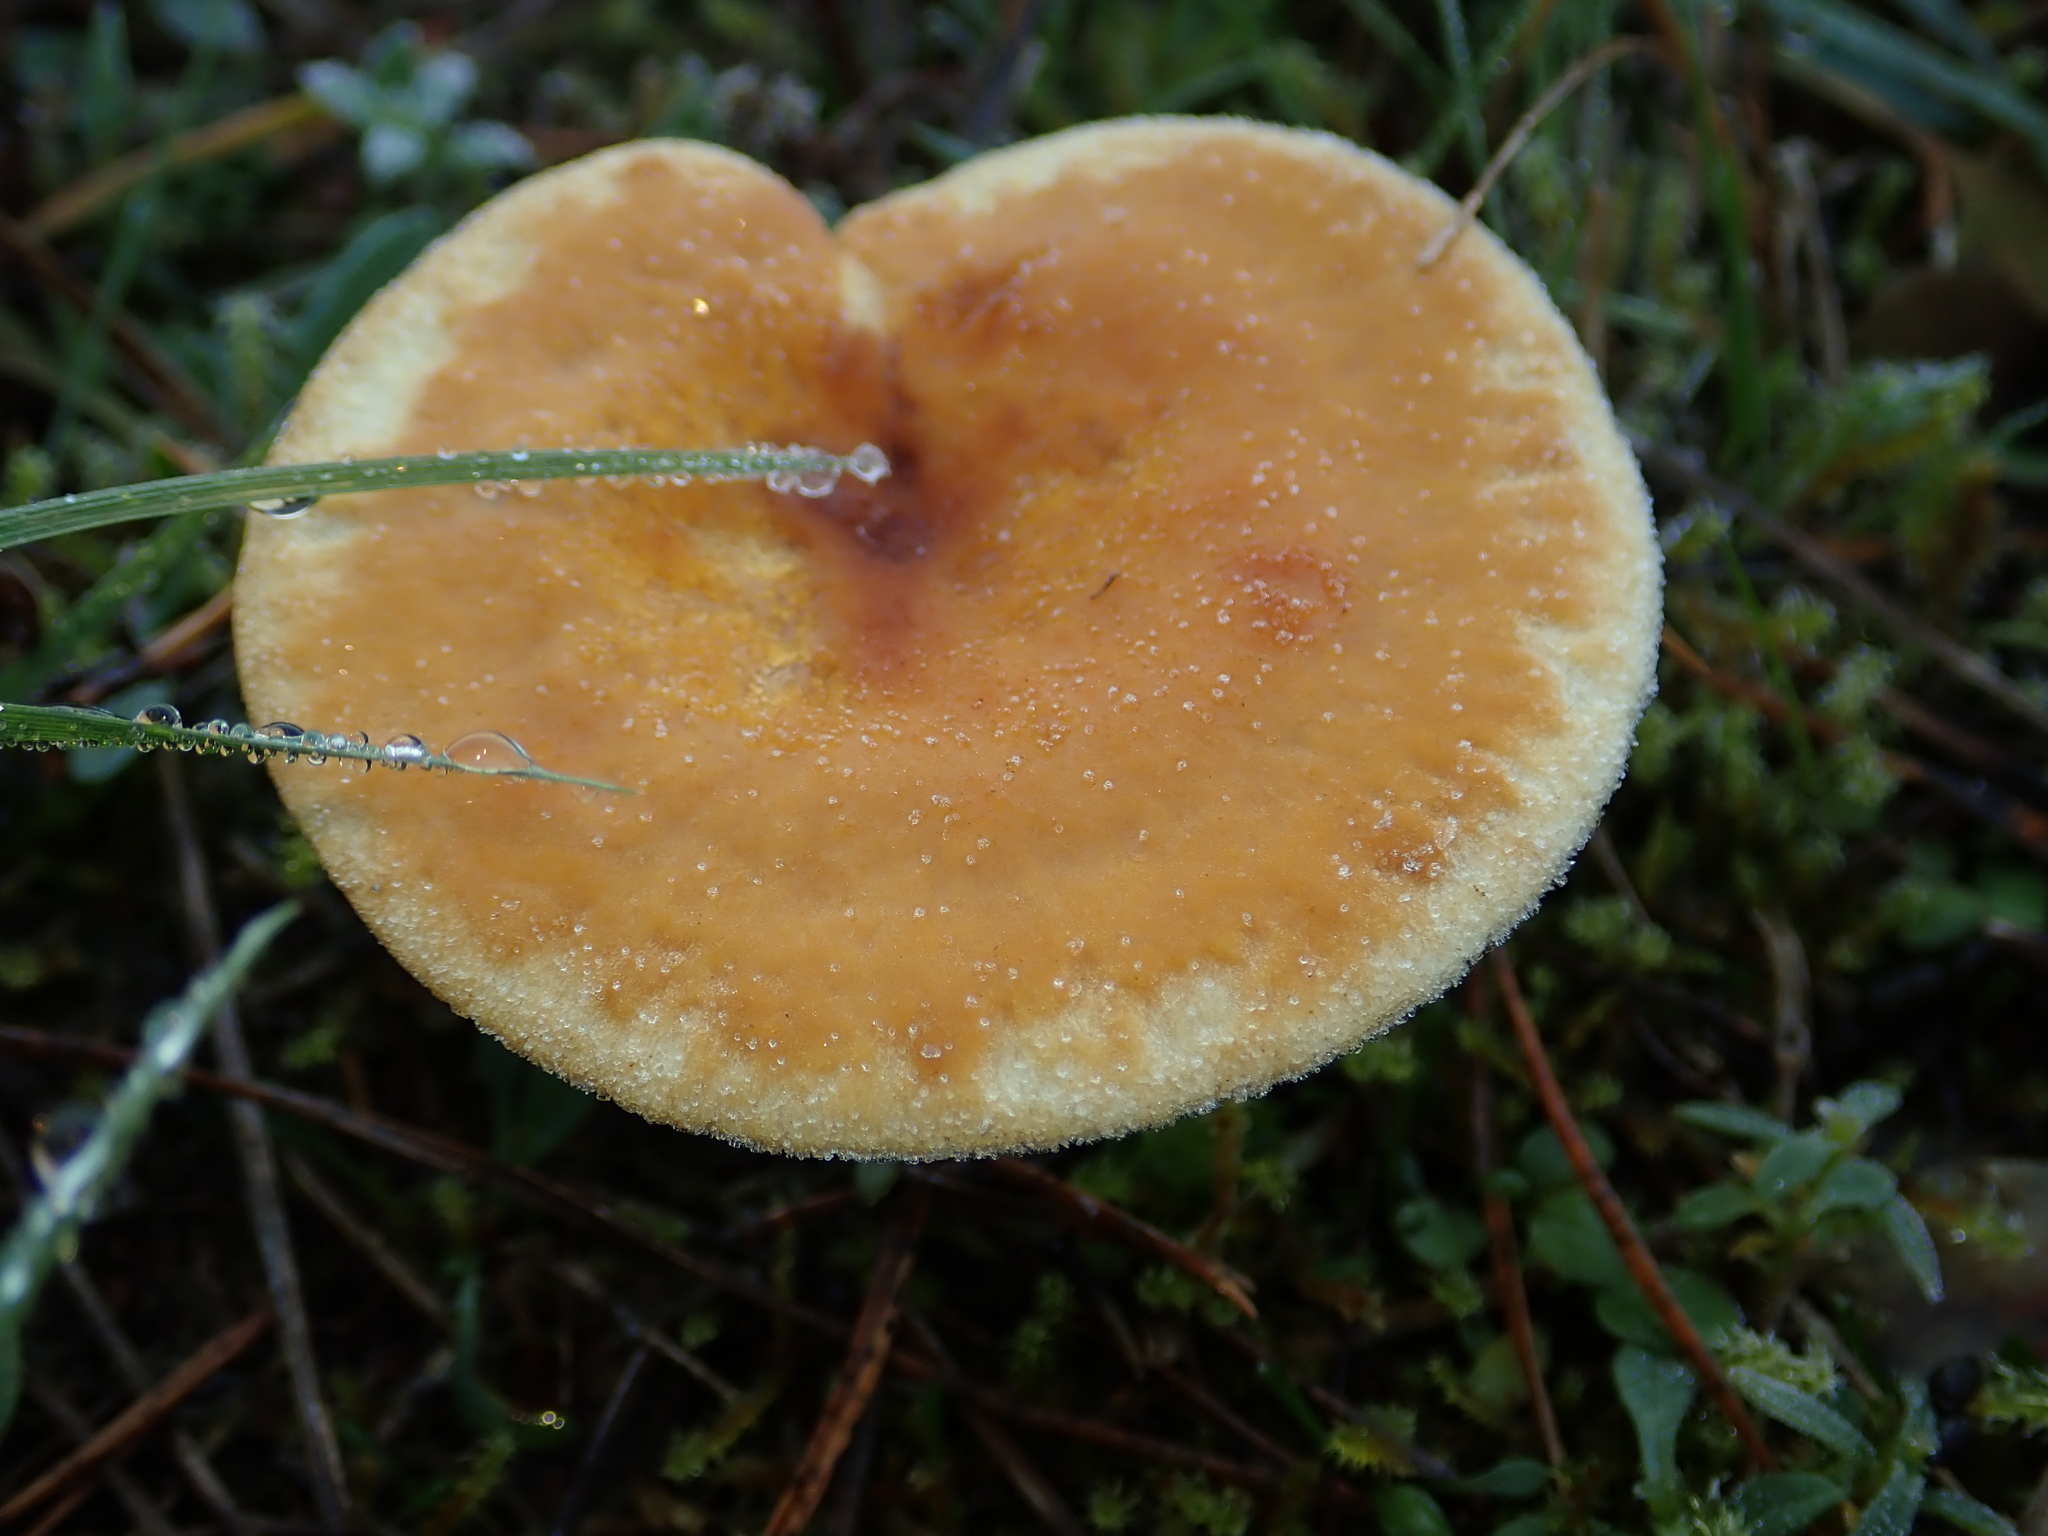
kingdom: Fungi
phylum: Basidiomycota
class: Agaricomycetes
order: Boletales
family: Hygrophoropsidaceae
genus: Hygrophoropsis
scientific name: Hygrophoropsis aurantiaca
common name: False chanterelle
